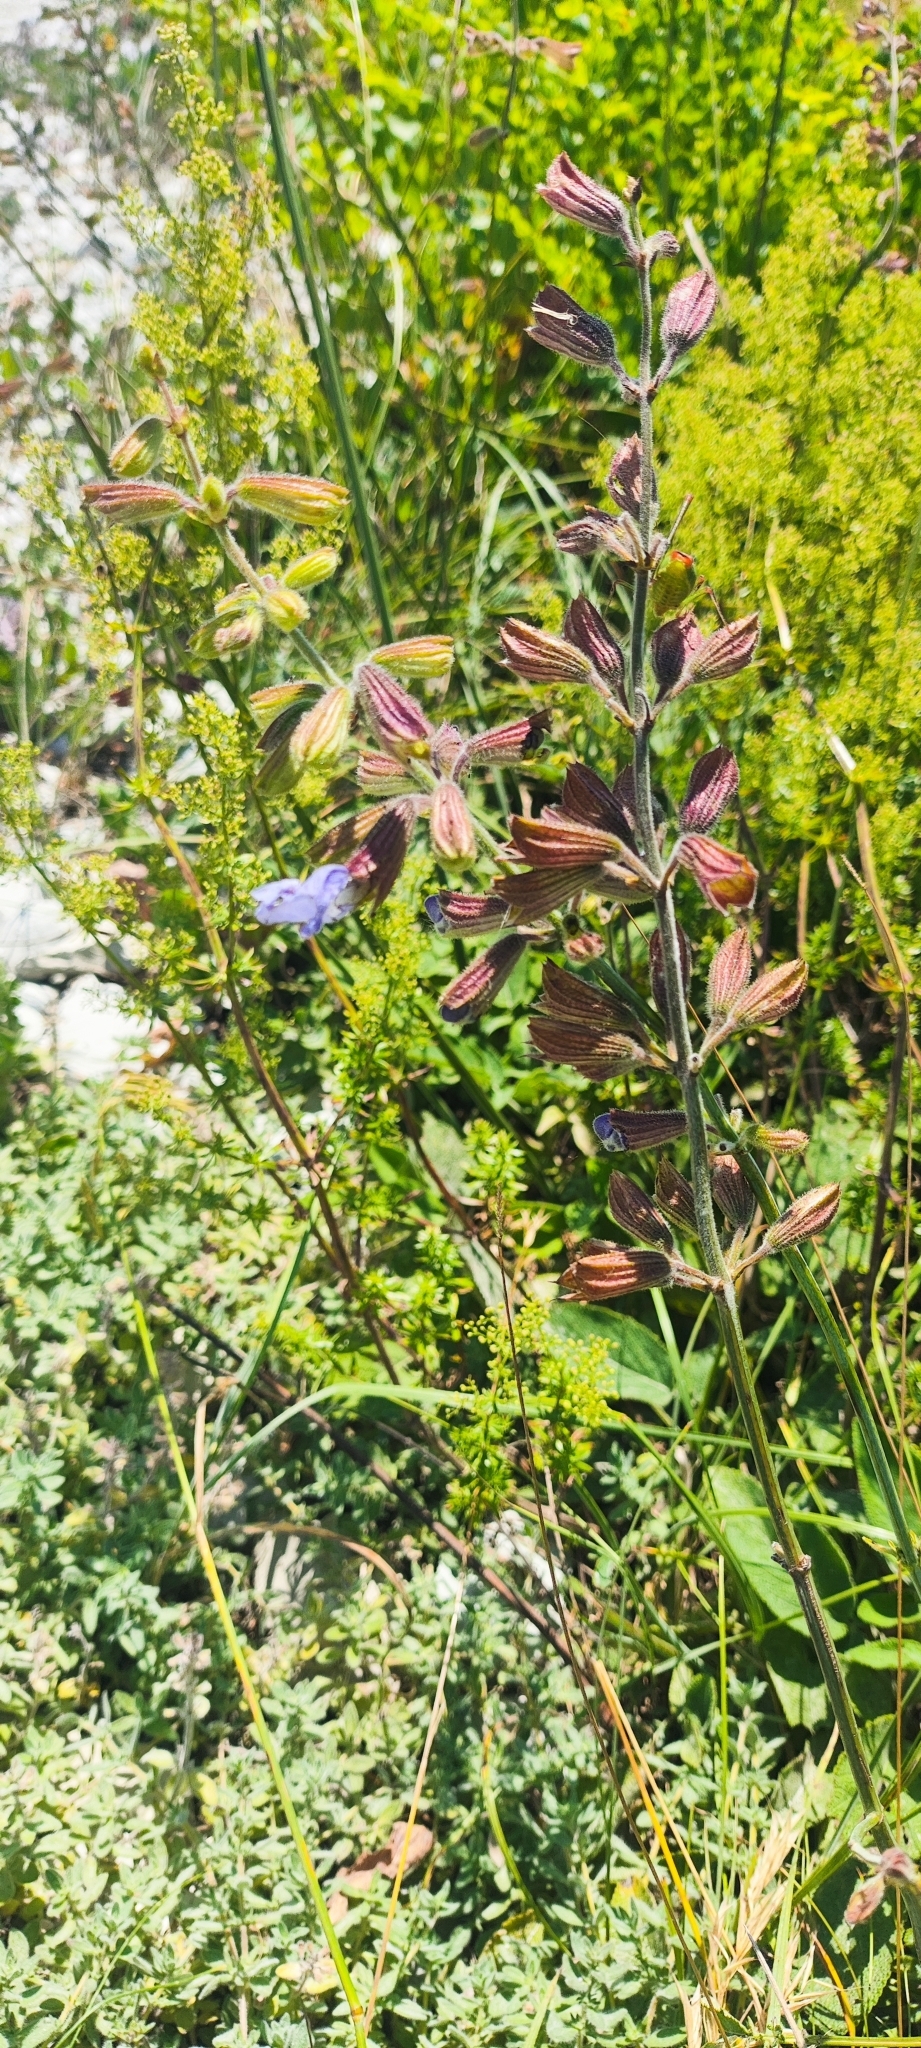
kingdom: Plantae
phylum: Tracheophyta
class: Magnoliopsida
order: Lamiales
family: Lamiaceae
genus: Salvia
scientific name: Salvia ringens
